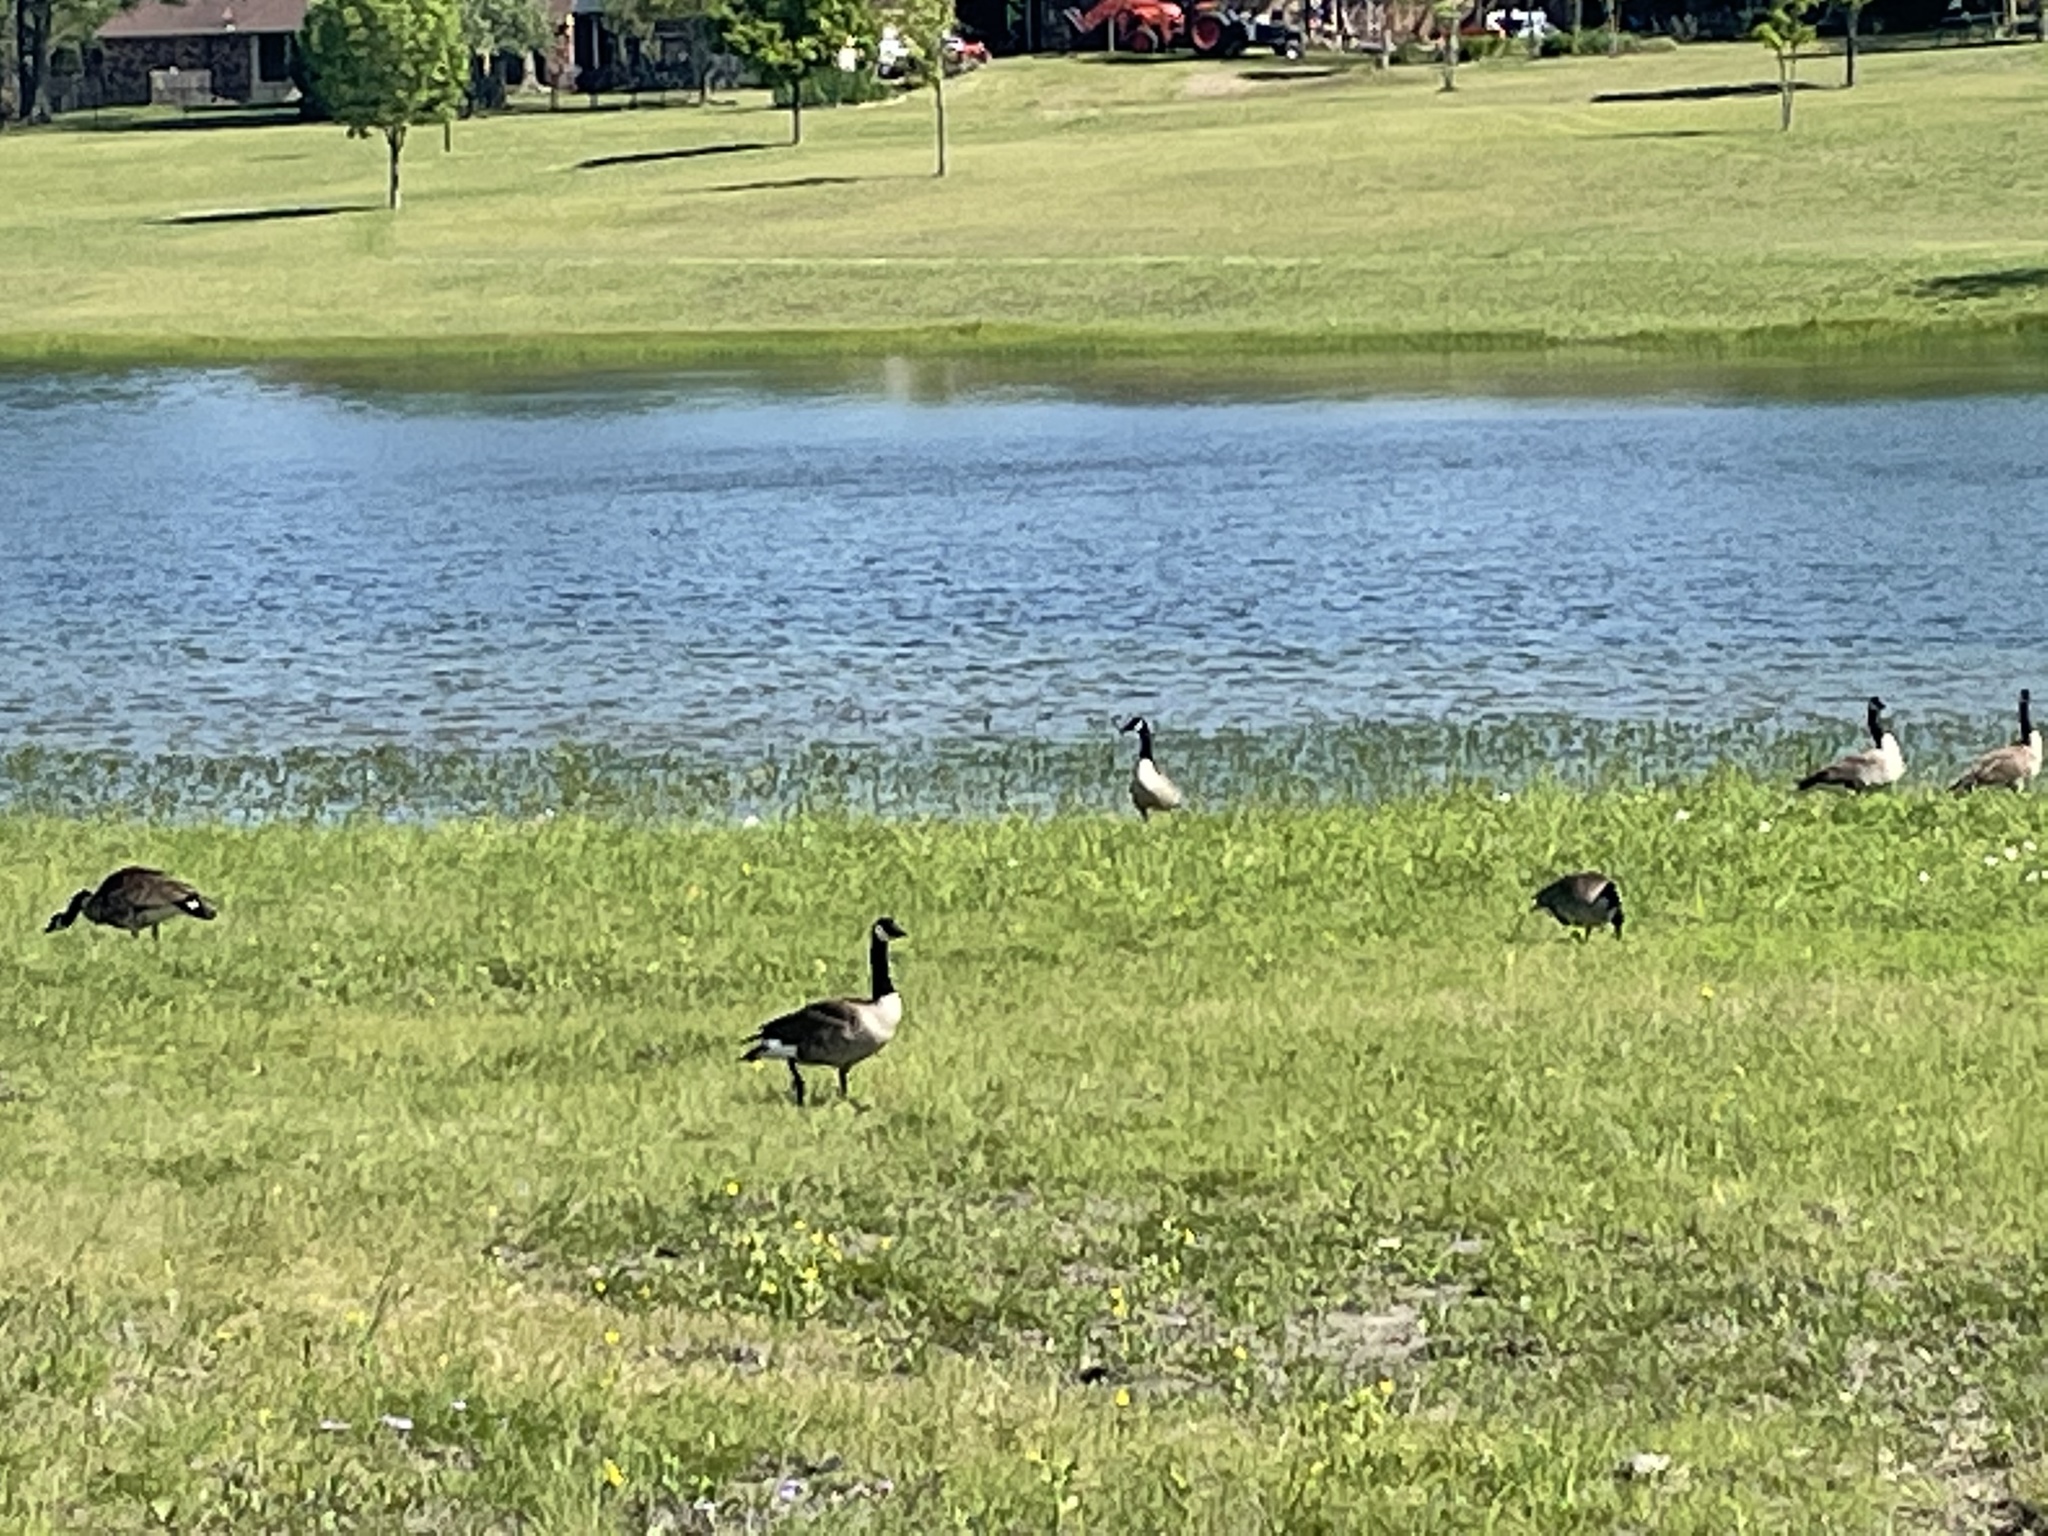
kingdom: Animalia
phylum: Chordata
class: Aves
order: Anseriformes
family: Anatidae
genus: Branta
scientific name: Branta canadensis
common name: Canada goose
